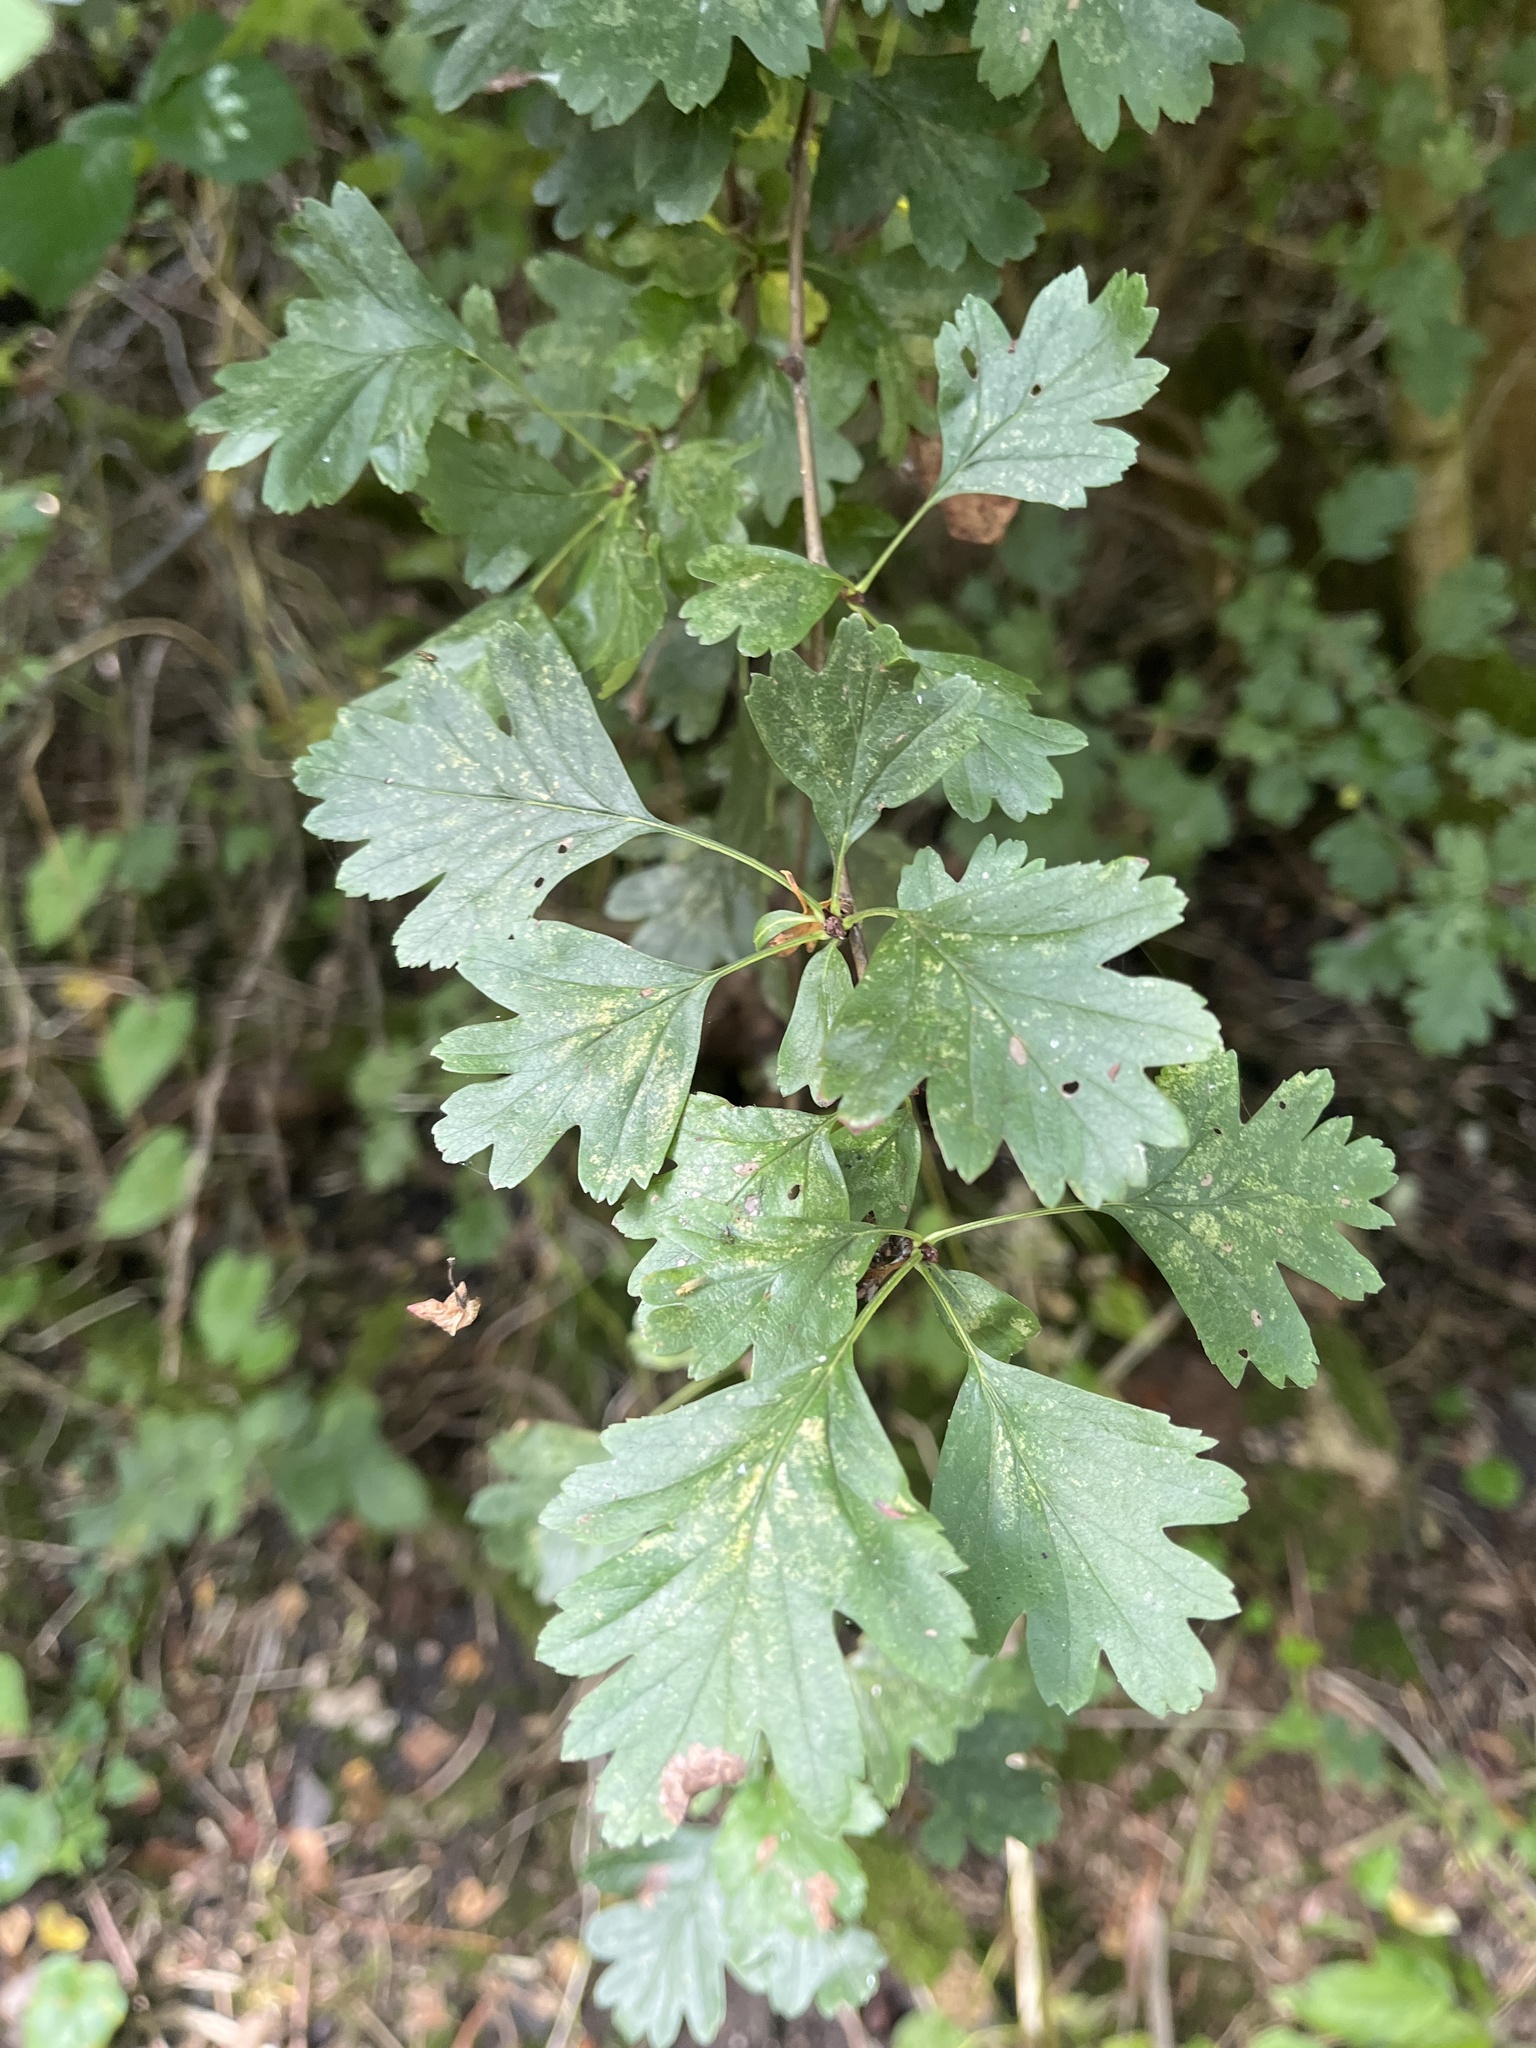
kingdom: Plantae
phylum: Tracheophyta
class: Magnoliopsida
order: Rosales
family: Rosaceae
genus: Crataegus
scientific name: Crataegus monogyna
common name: Hawthorn
